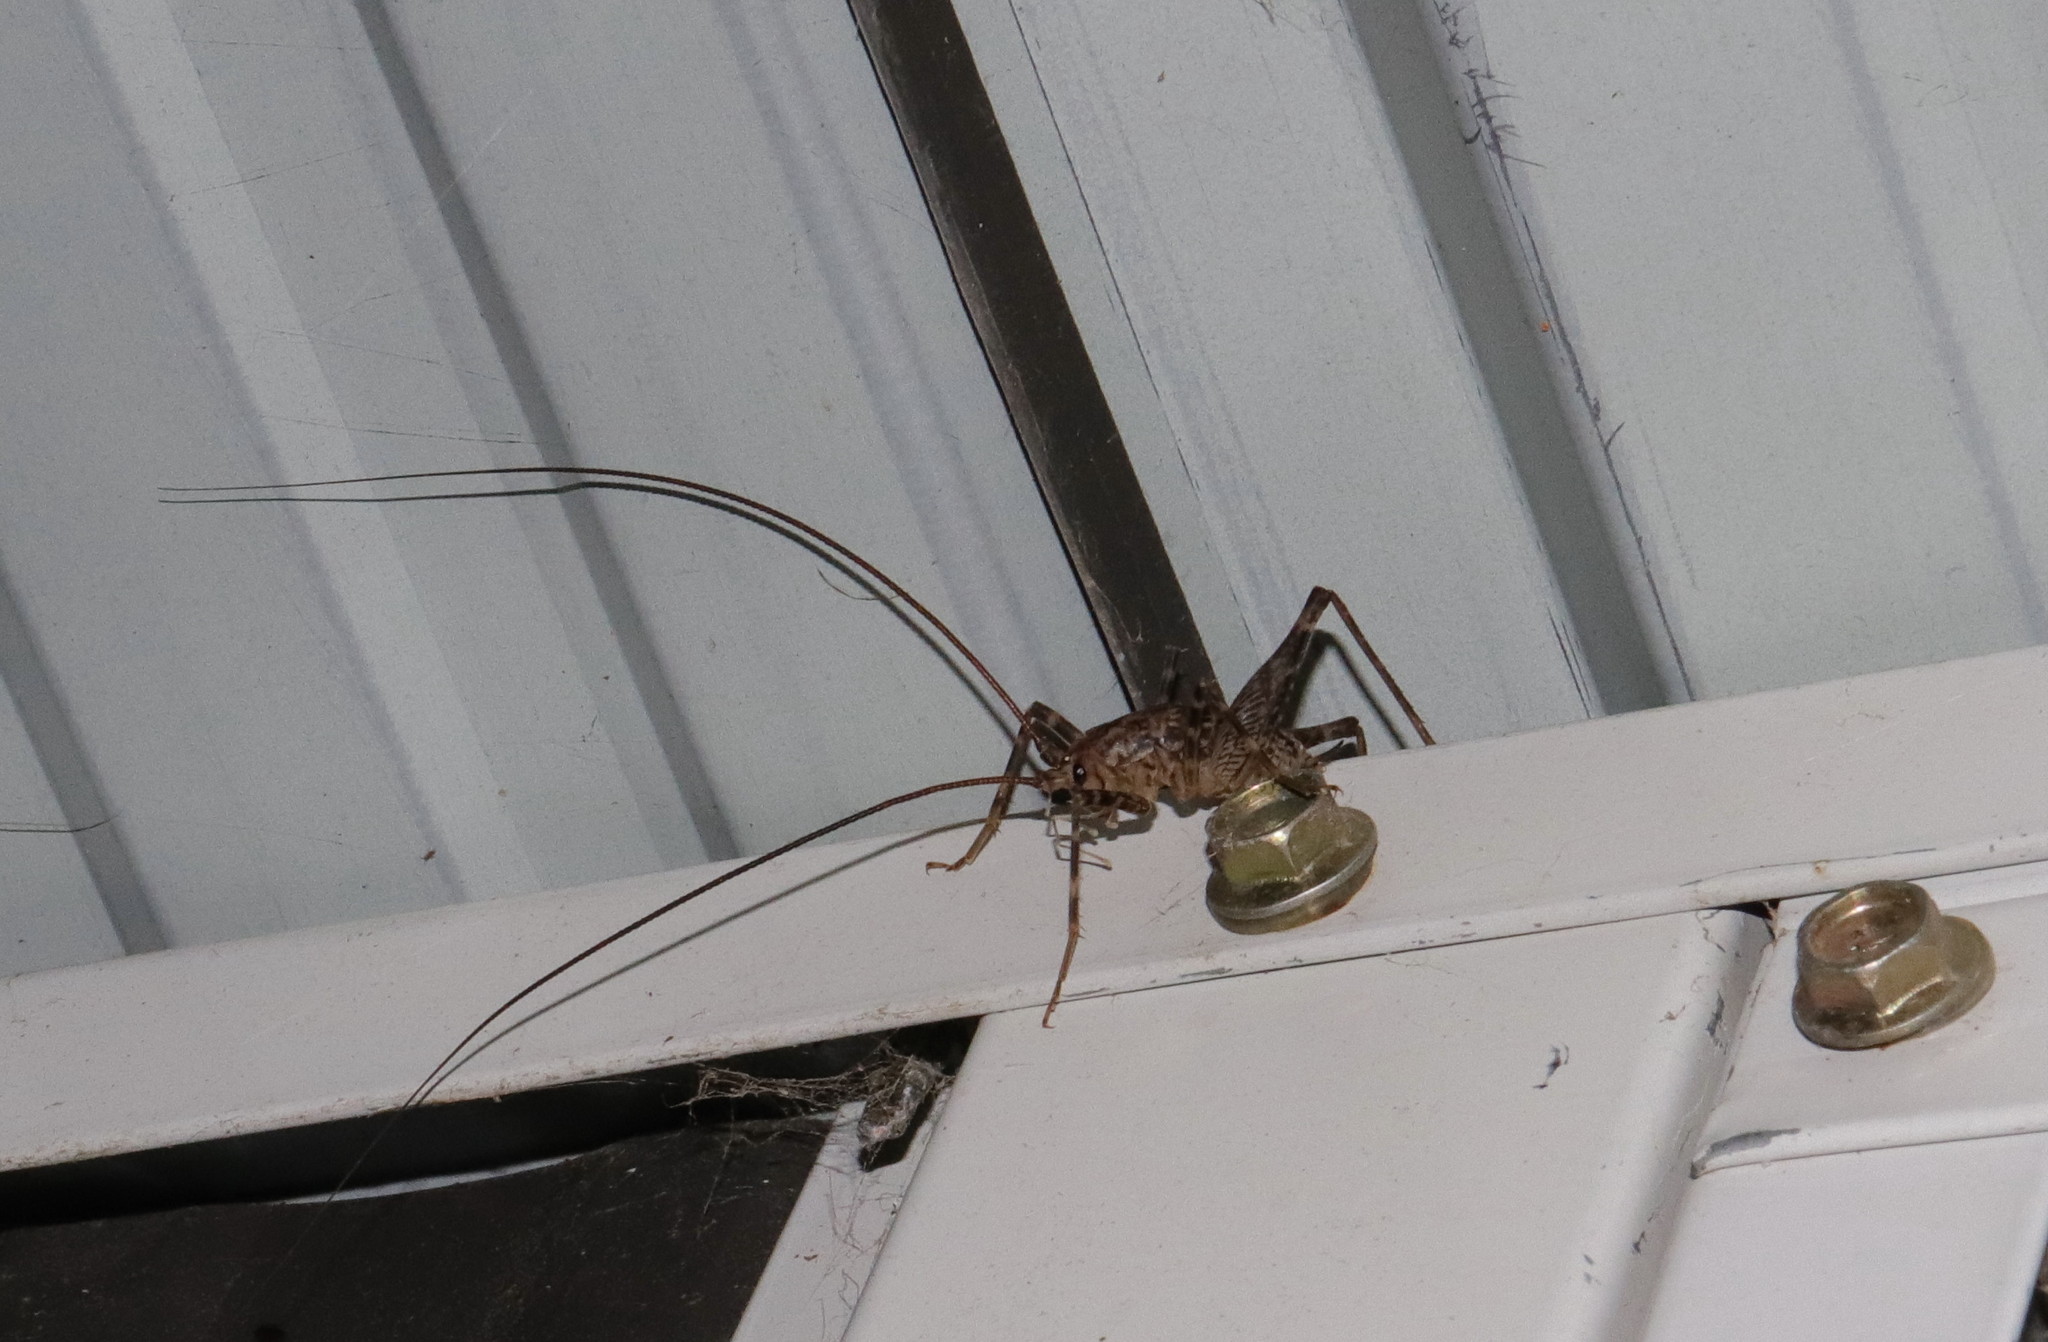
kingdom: Animalia
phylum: Arthropoda
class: Insecta
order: Orthoptera
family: Rhaphidophoridae
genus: Pleioplectron
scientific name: Pleioplectron simplex
